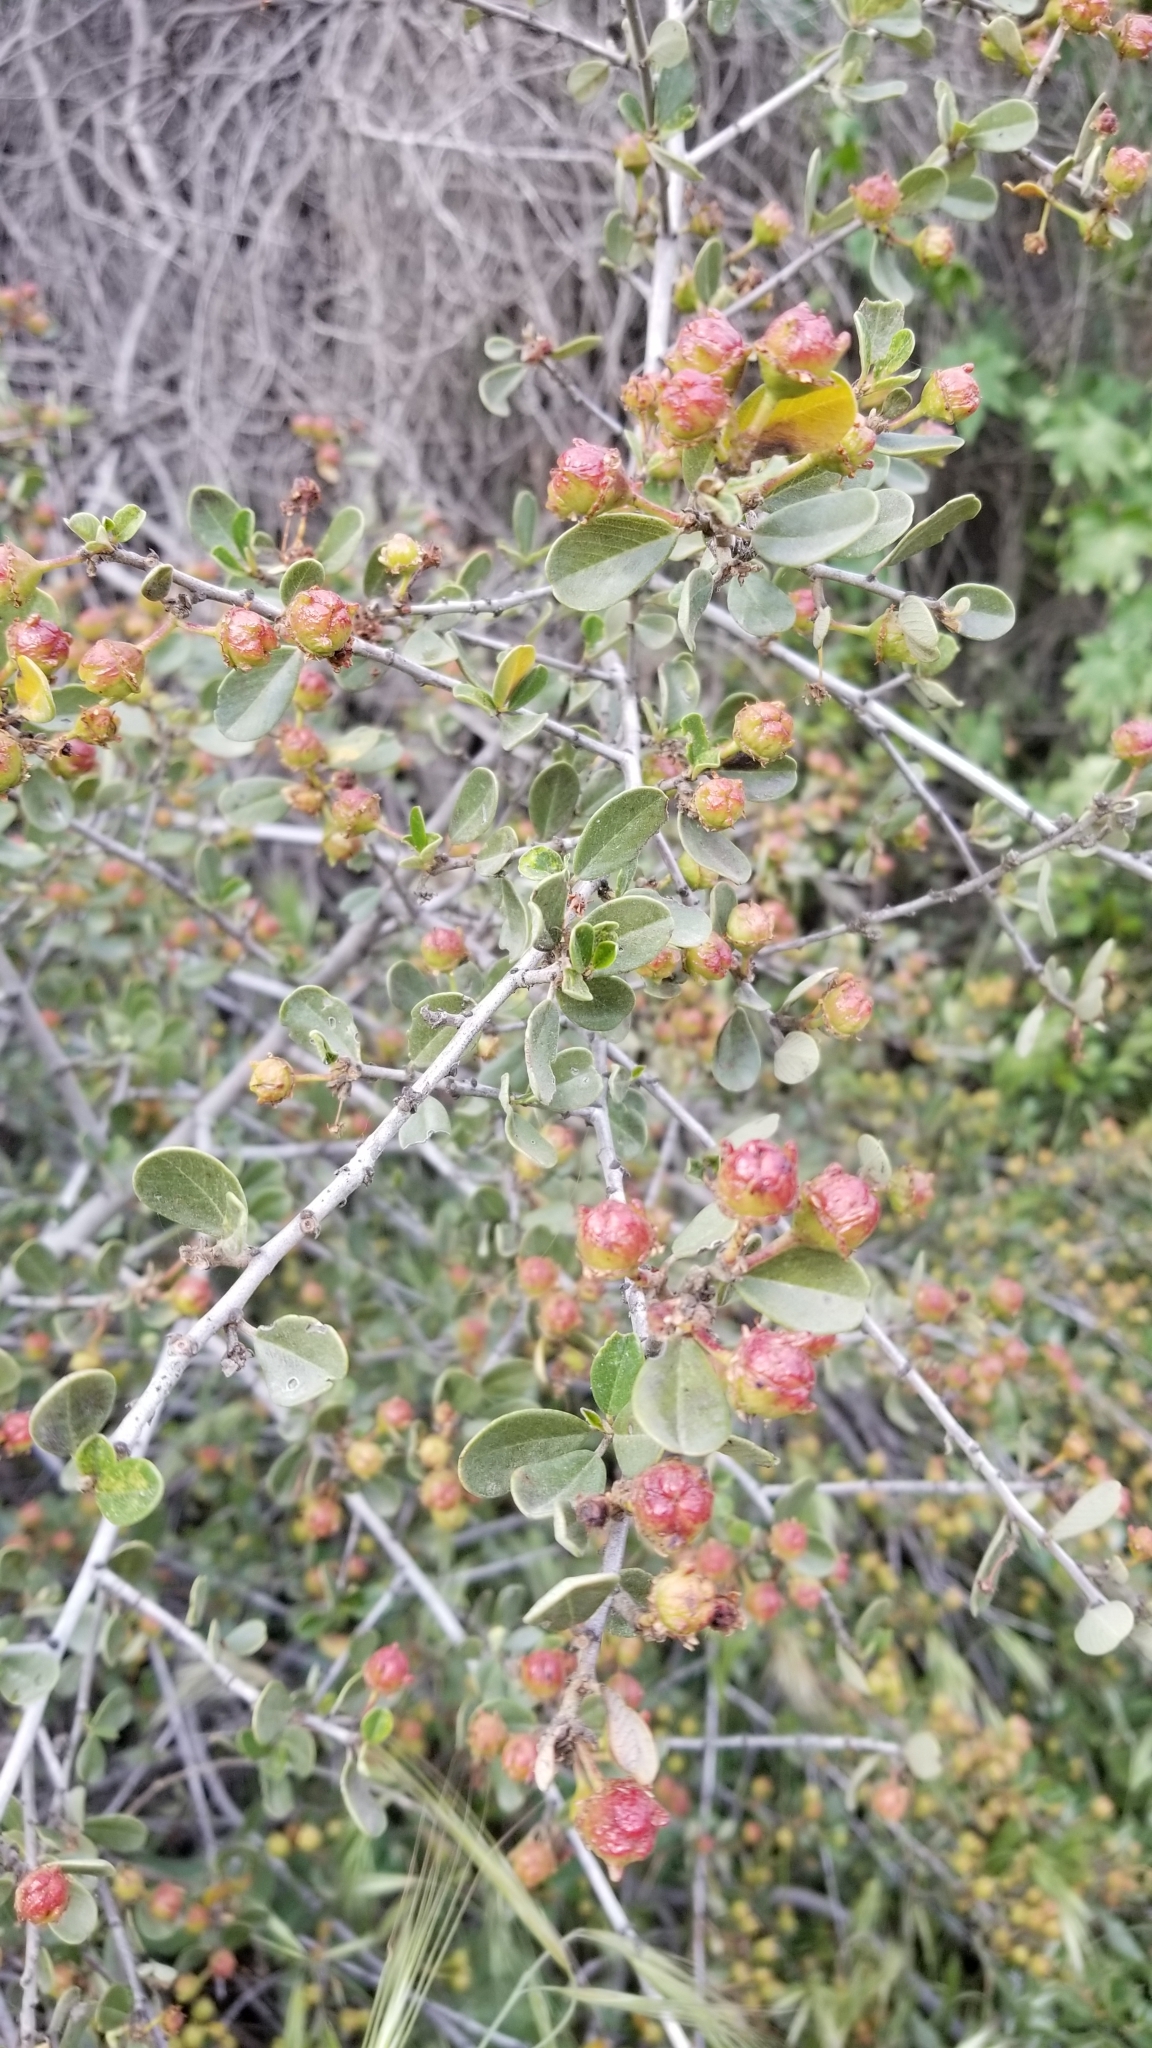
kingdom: Plantae
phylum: Tracheophyta
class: Magnoliopsida
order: Rosales
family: Rhamnaceae
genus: Ceanothus
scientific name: Ceanothus megacarpus
